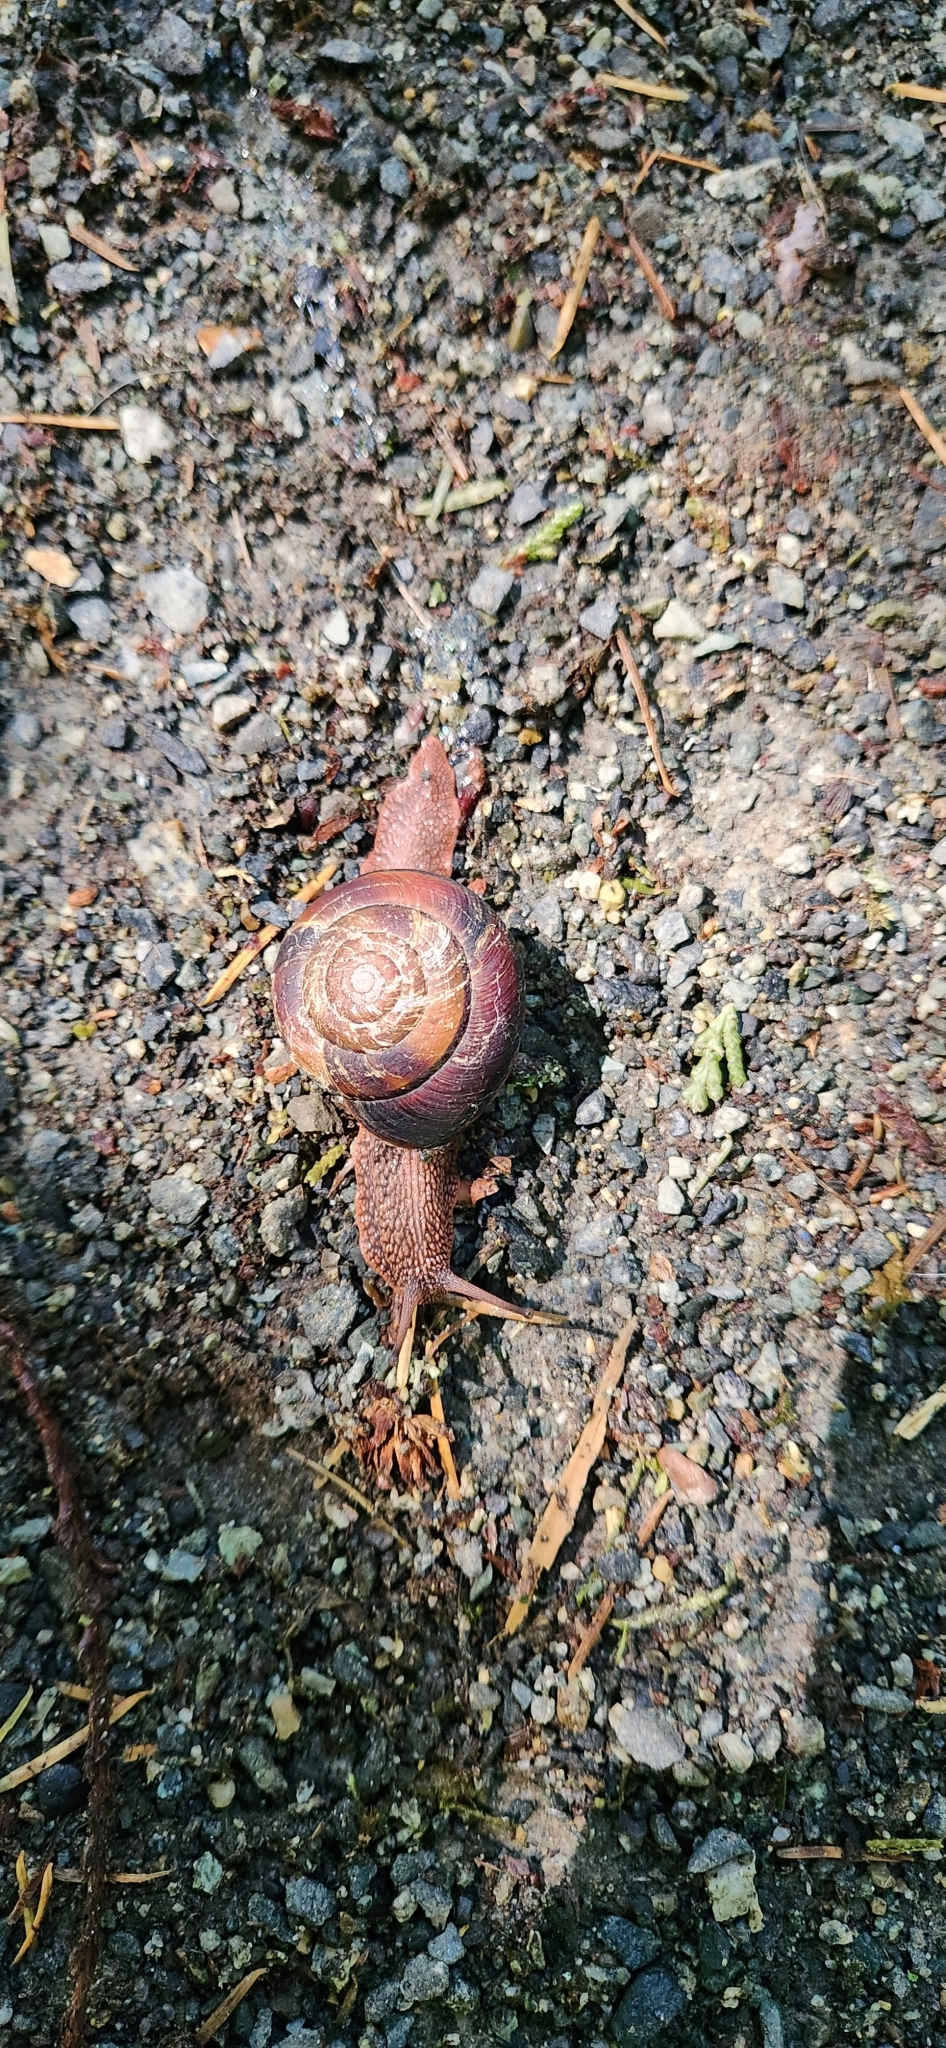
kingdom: Animalia
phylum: Mollusca
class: Gastropoda
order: Stylommatophora
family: Xanthonychidae
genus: Monadenia
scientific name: Monadenia fidelis
